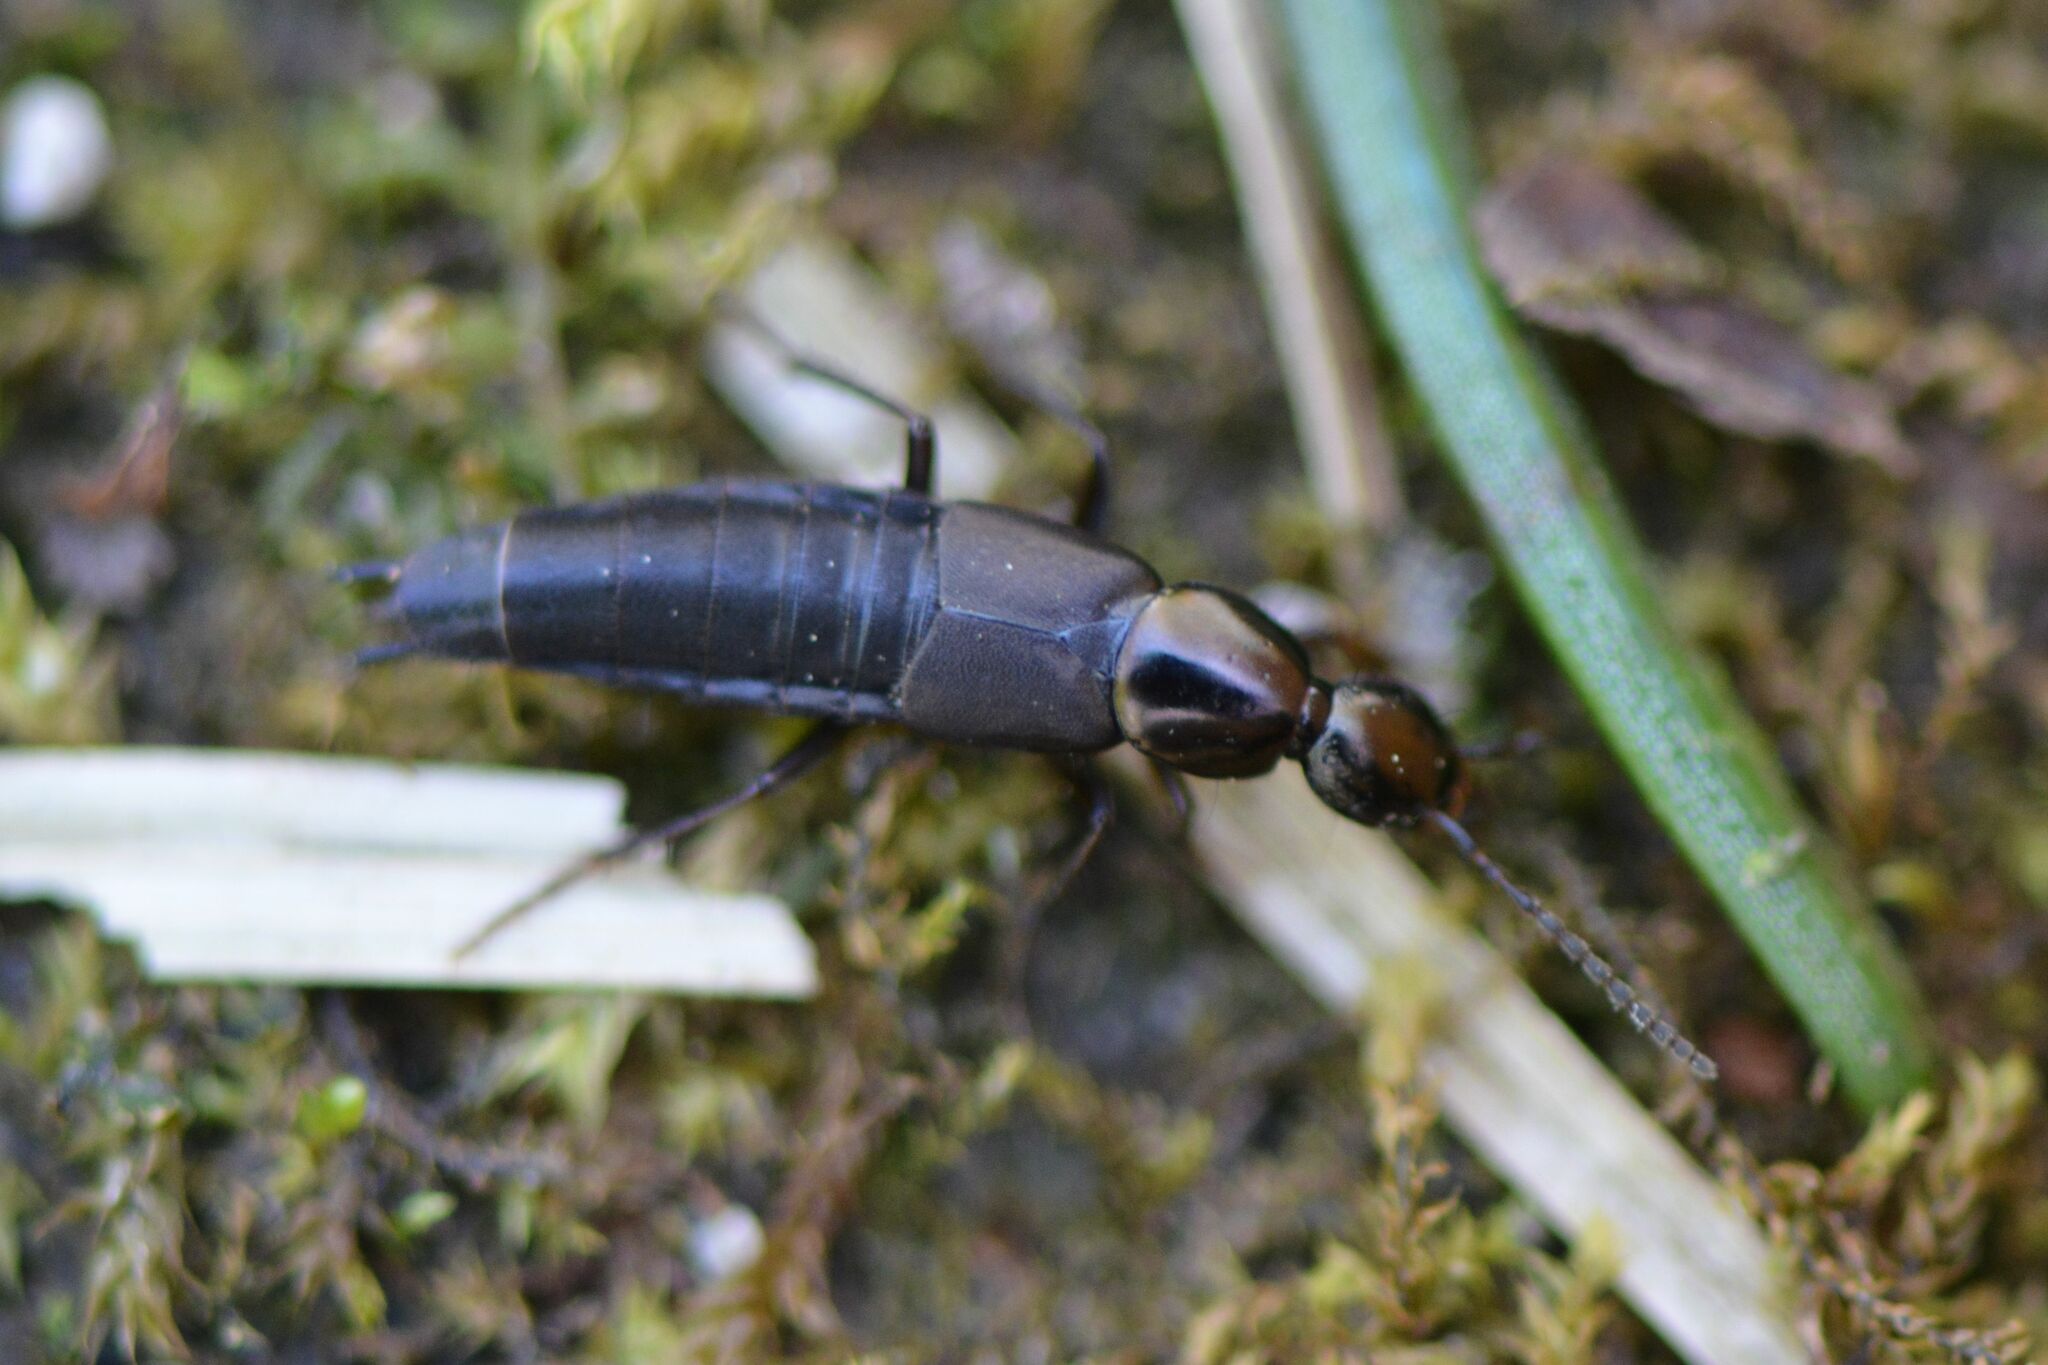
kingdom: Animalia
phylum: Arthropoda
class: Insecta
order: Coleoptera
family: Staphylinidae
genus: Philonthus
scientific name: Philonthus decorus
